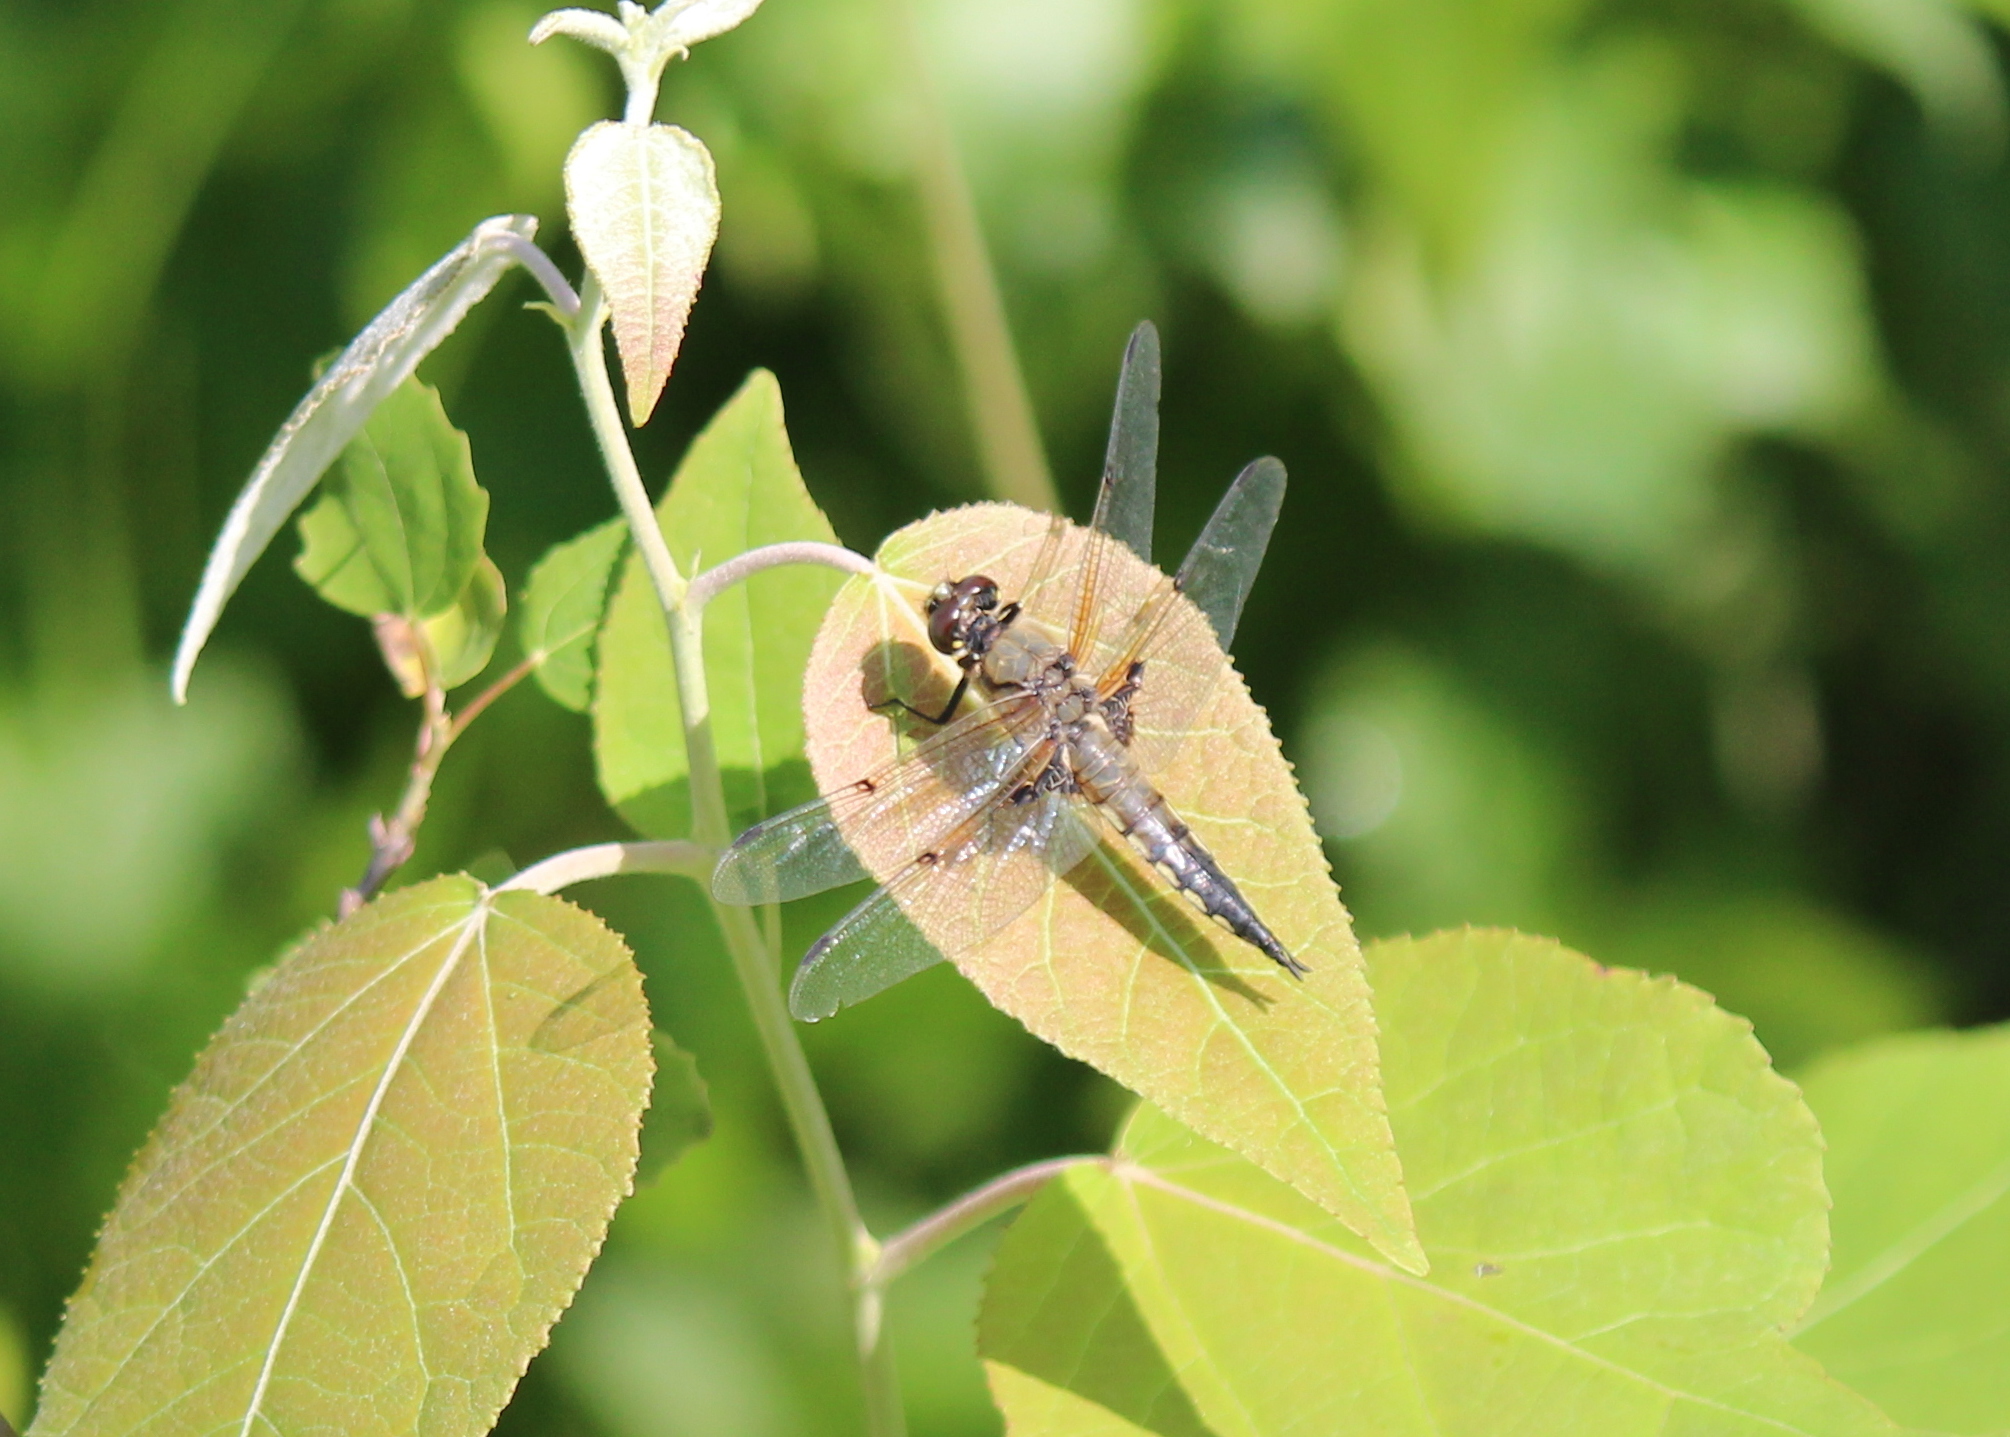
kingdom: Animalia
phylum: Arthropoda
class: Insecta
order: Odonata
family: Libellulidae
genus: Libellula
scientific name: Libellula quadrimaculata
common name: Four-spotted chaser
